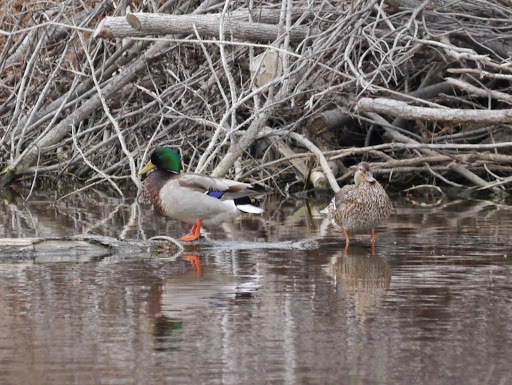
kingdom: Animalia
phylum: Chordata
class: Aves
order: Anseriformes
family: Anatidae
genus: Anas
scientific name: Anas platyrhynchos
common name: Mallard
